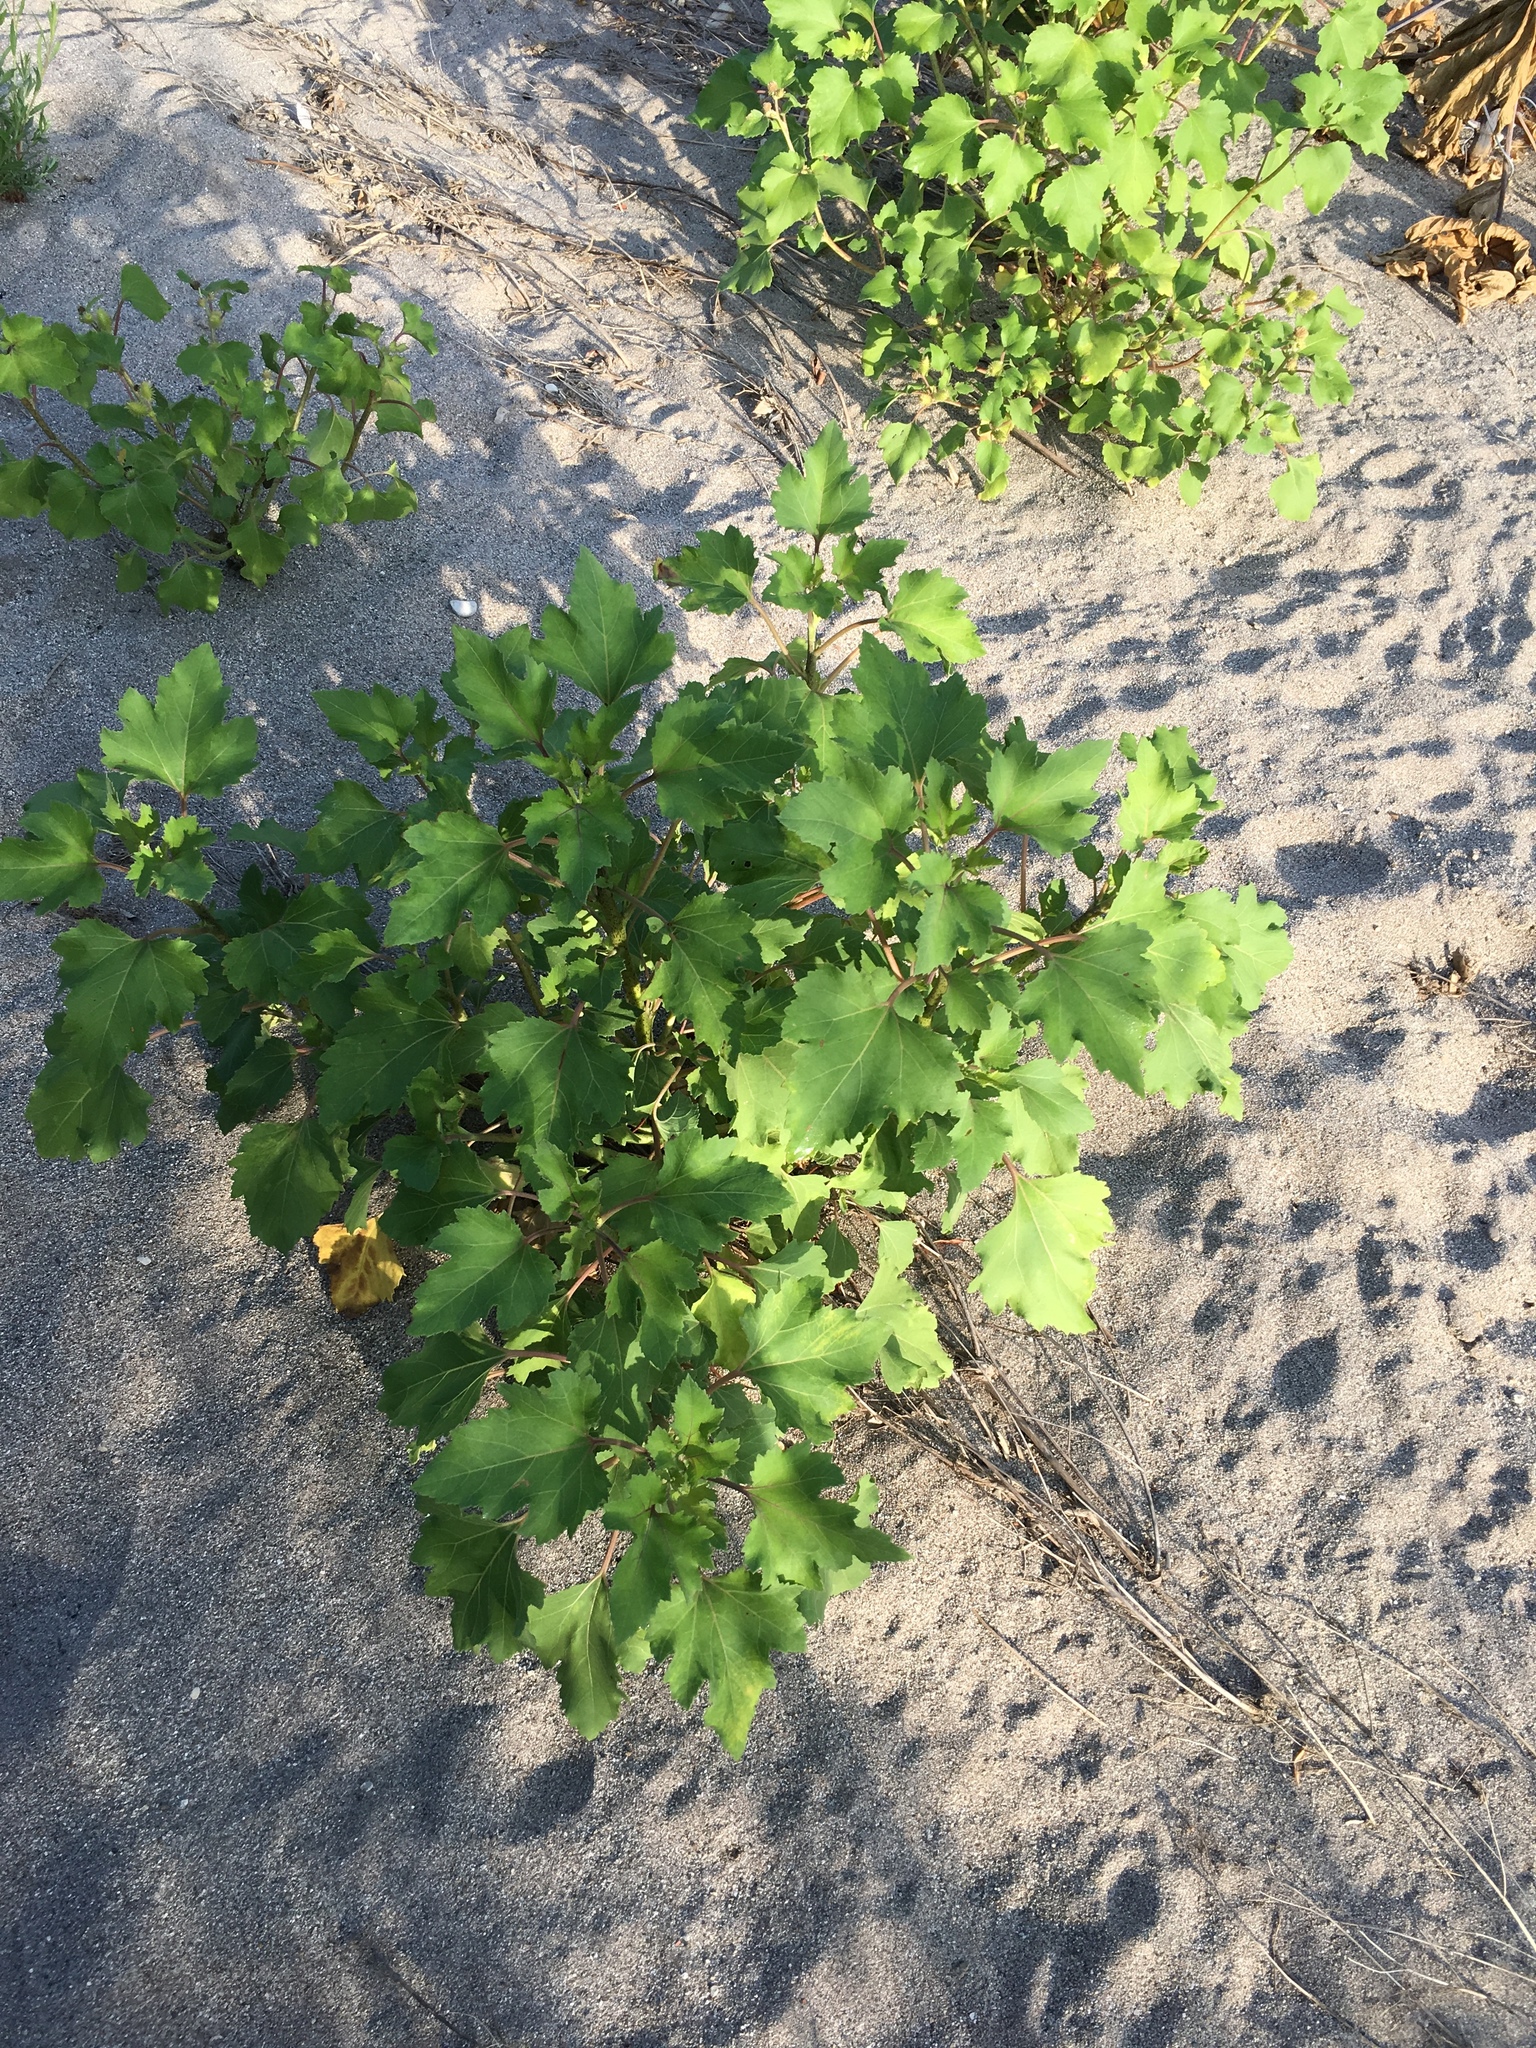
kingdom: Plantae
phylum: Tracheophyta
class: Magnoliopsida
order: Asterales
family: Asteraceae
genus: Xanthium
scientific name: Xanthium strumarium
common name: Rough cocklebur
